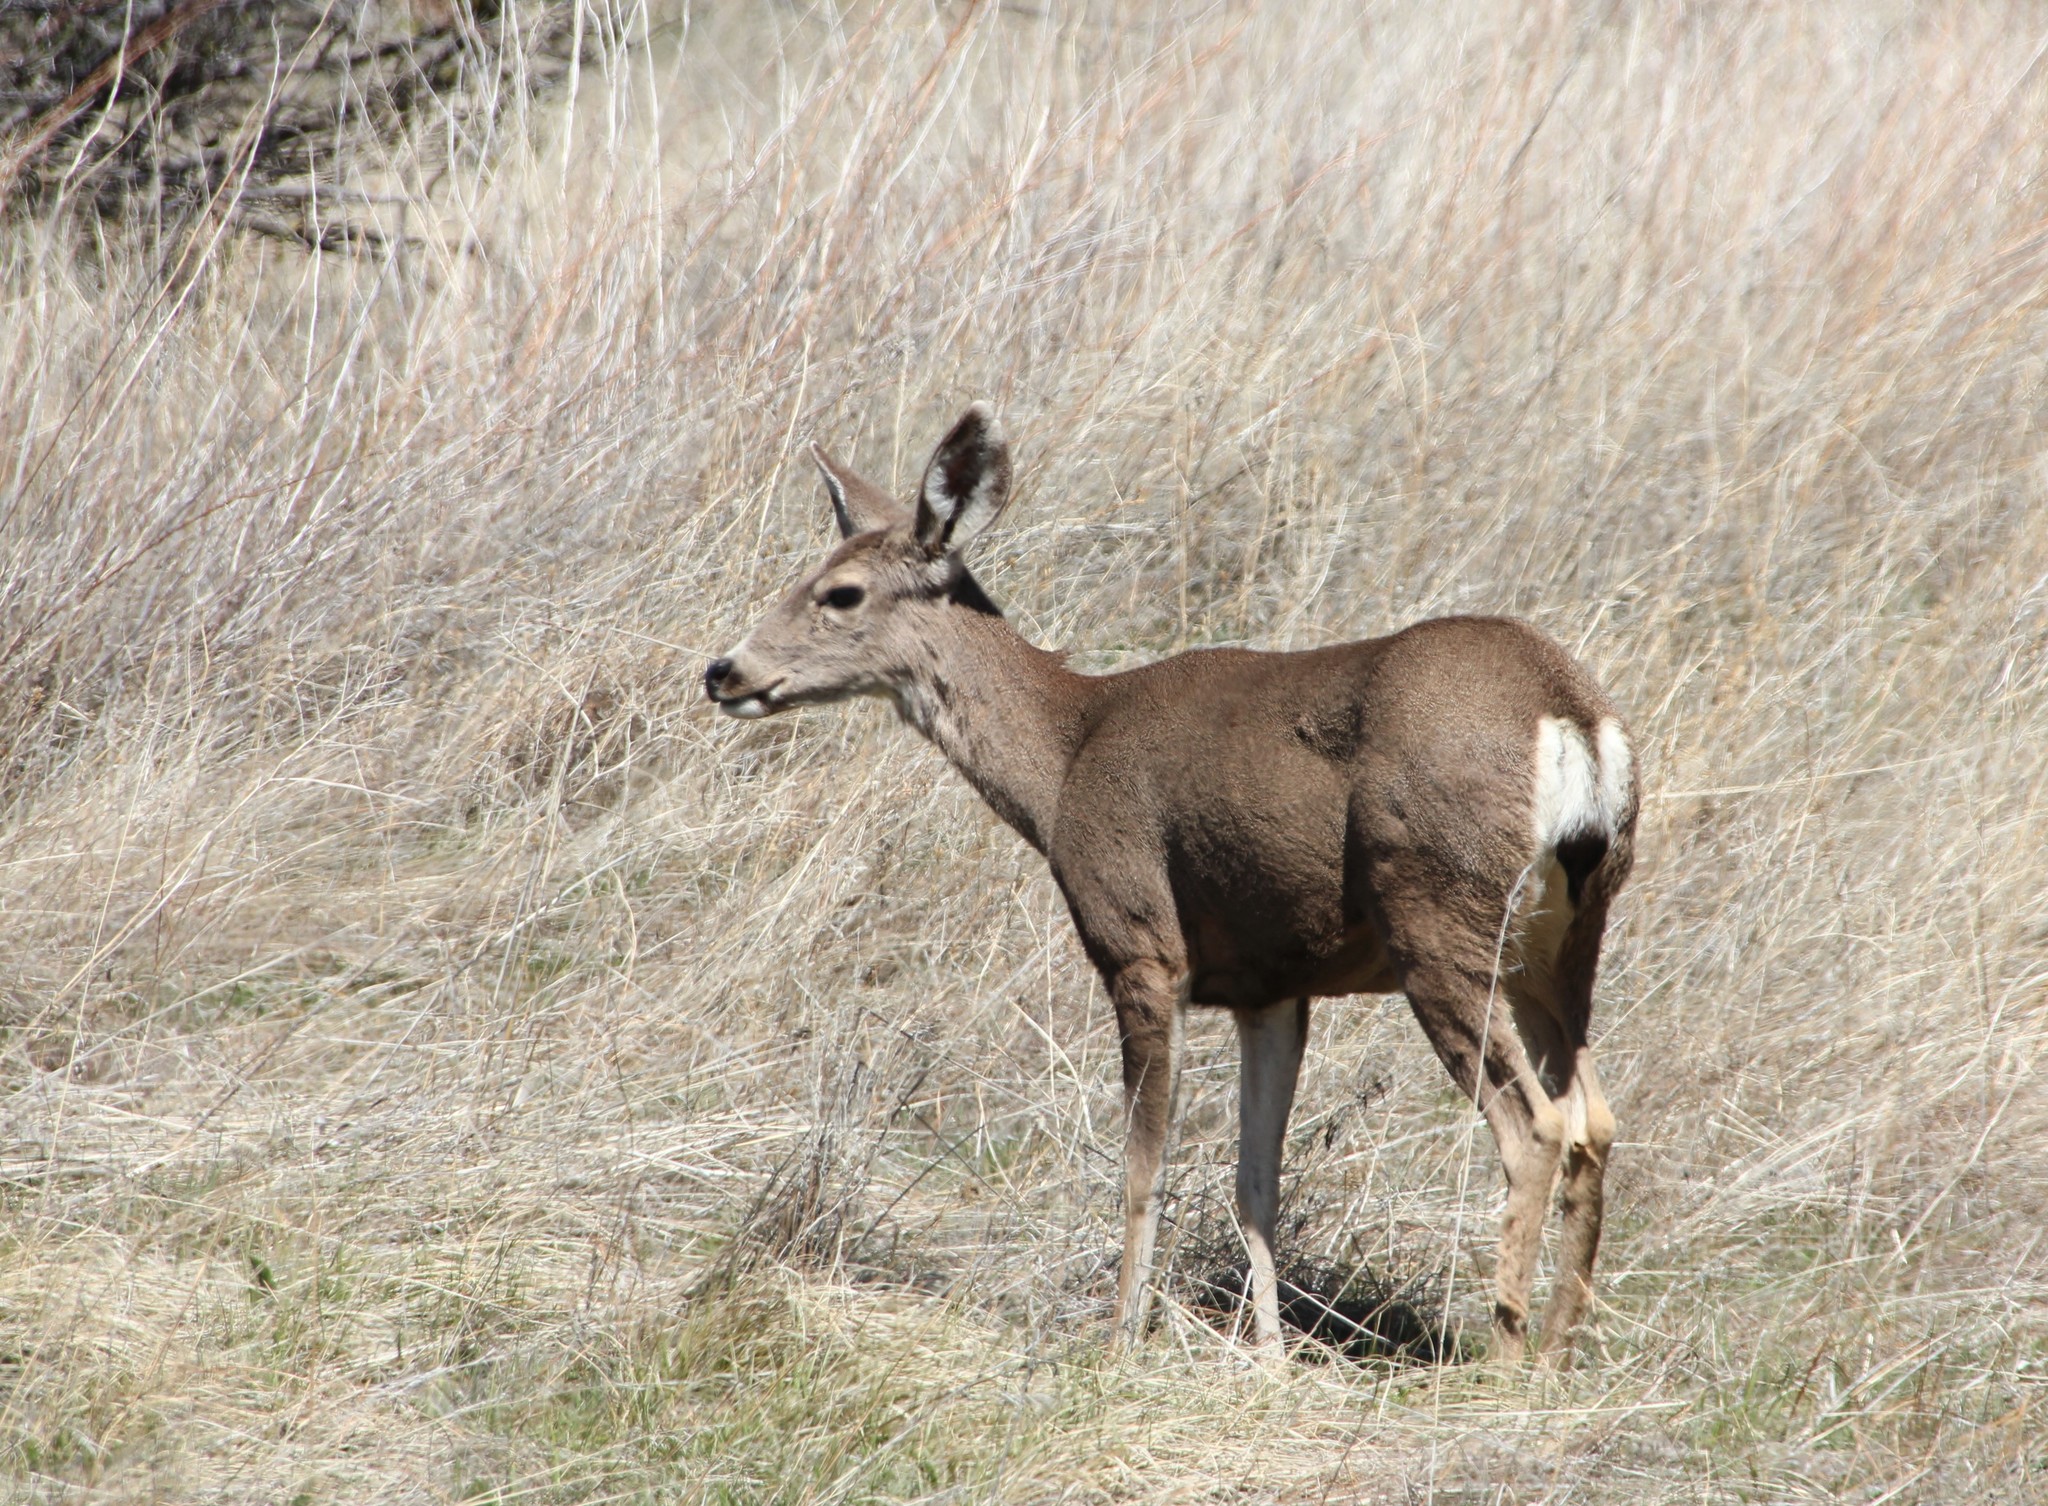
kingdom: Animalia
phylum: Chordata
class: Mammalia
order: Artiodactyla
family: Cervidae
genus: Odocoileus
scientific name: Odocoileus hemionus
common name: Mule deer
